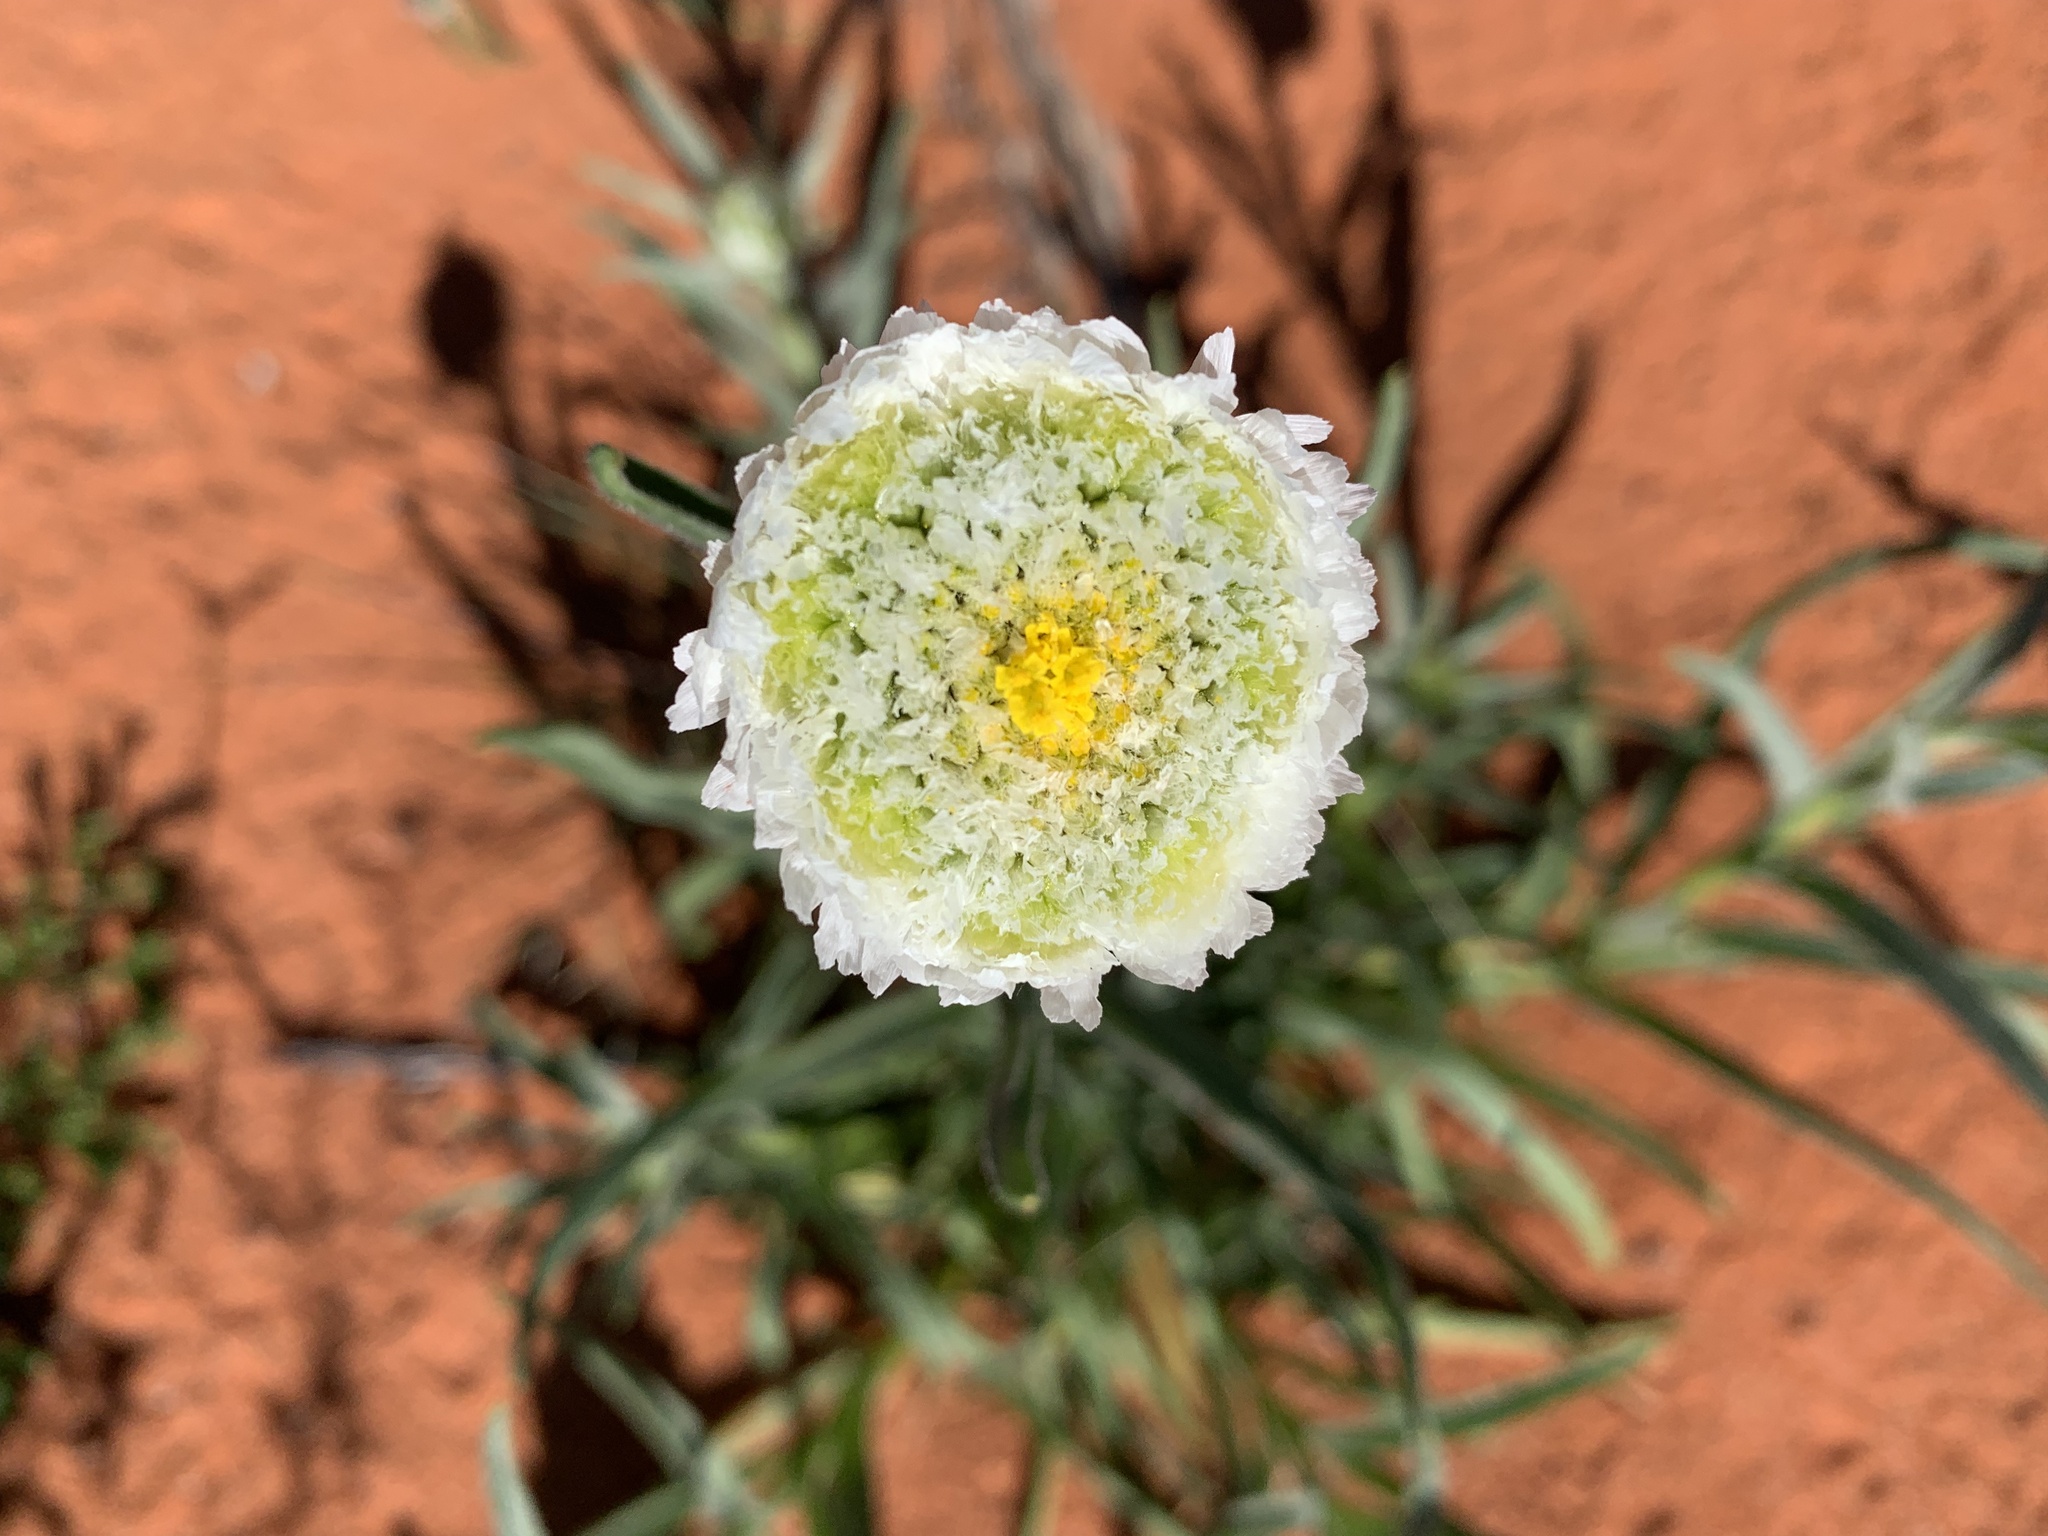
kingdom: Plantae
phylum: Tracheophyta
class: Magnoliopsida
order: Asterales
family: Asteraceae
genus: Polycalymma
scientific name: Polycalymma stuartii
